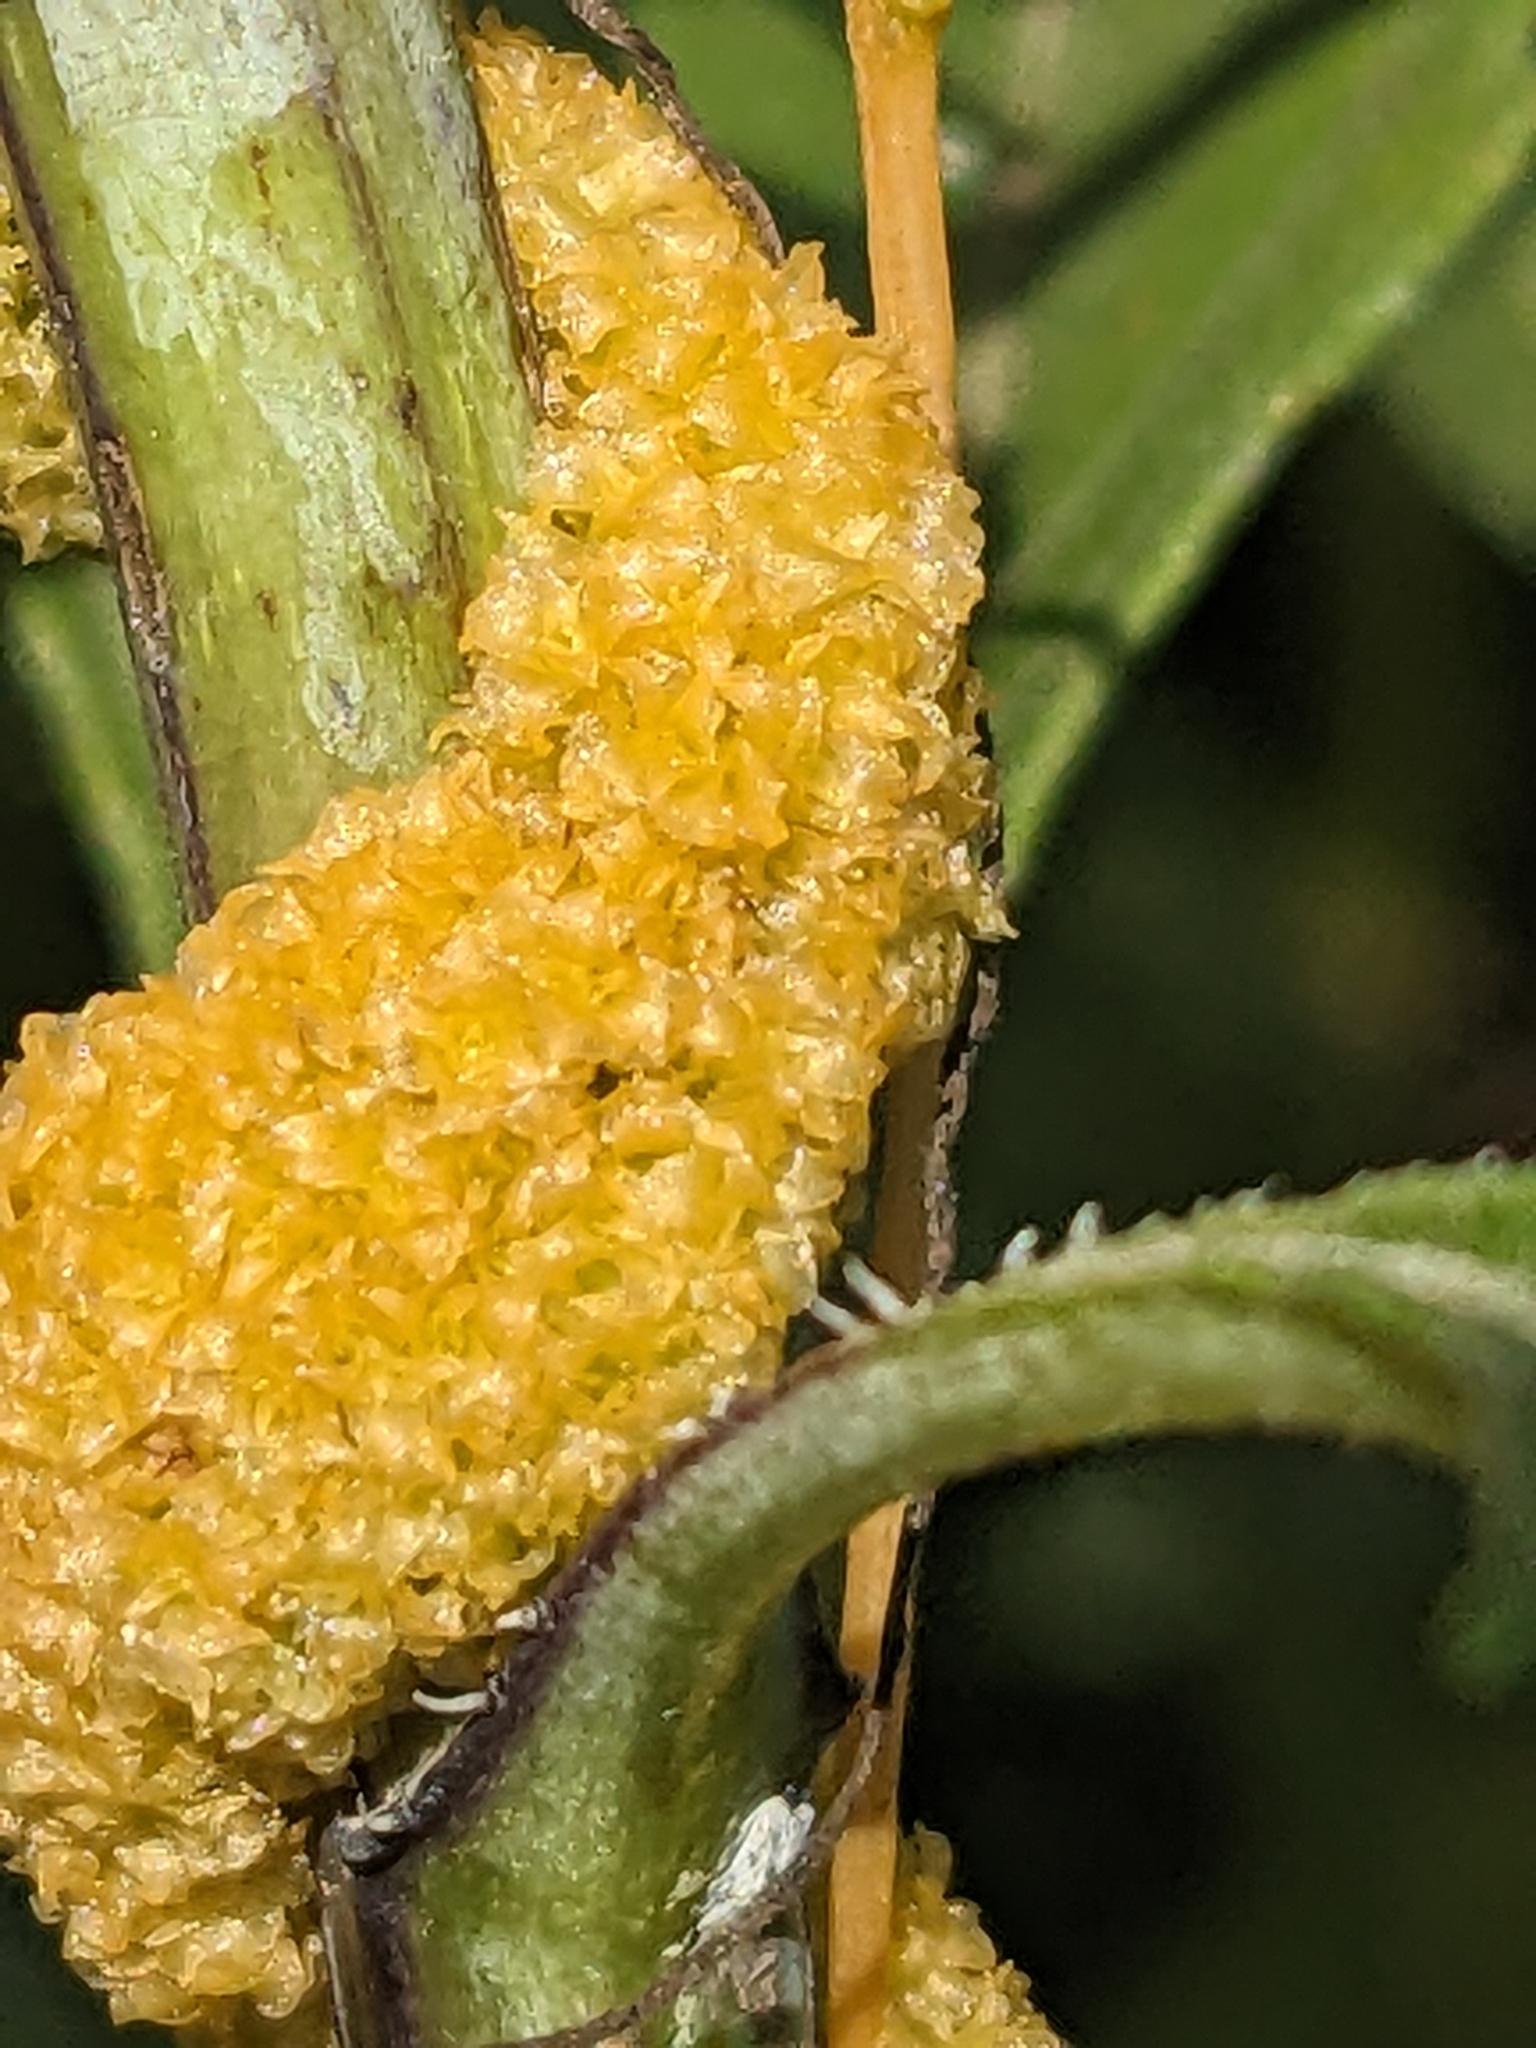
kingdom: Plantae
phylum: Tracheophyta
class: Magnoliopsida
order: Solanales
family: Convolvulaceae
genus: Cuscuta
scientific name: Cuscuta glomerata
